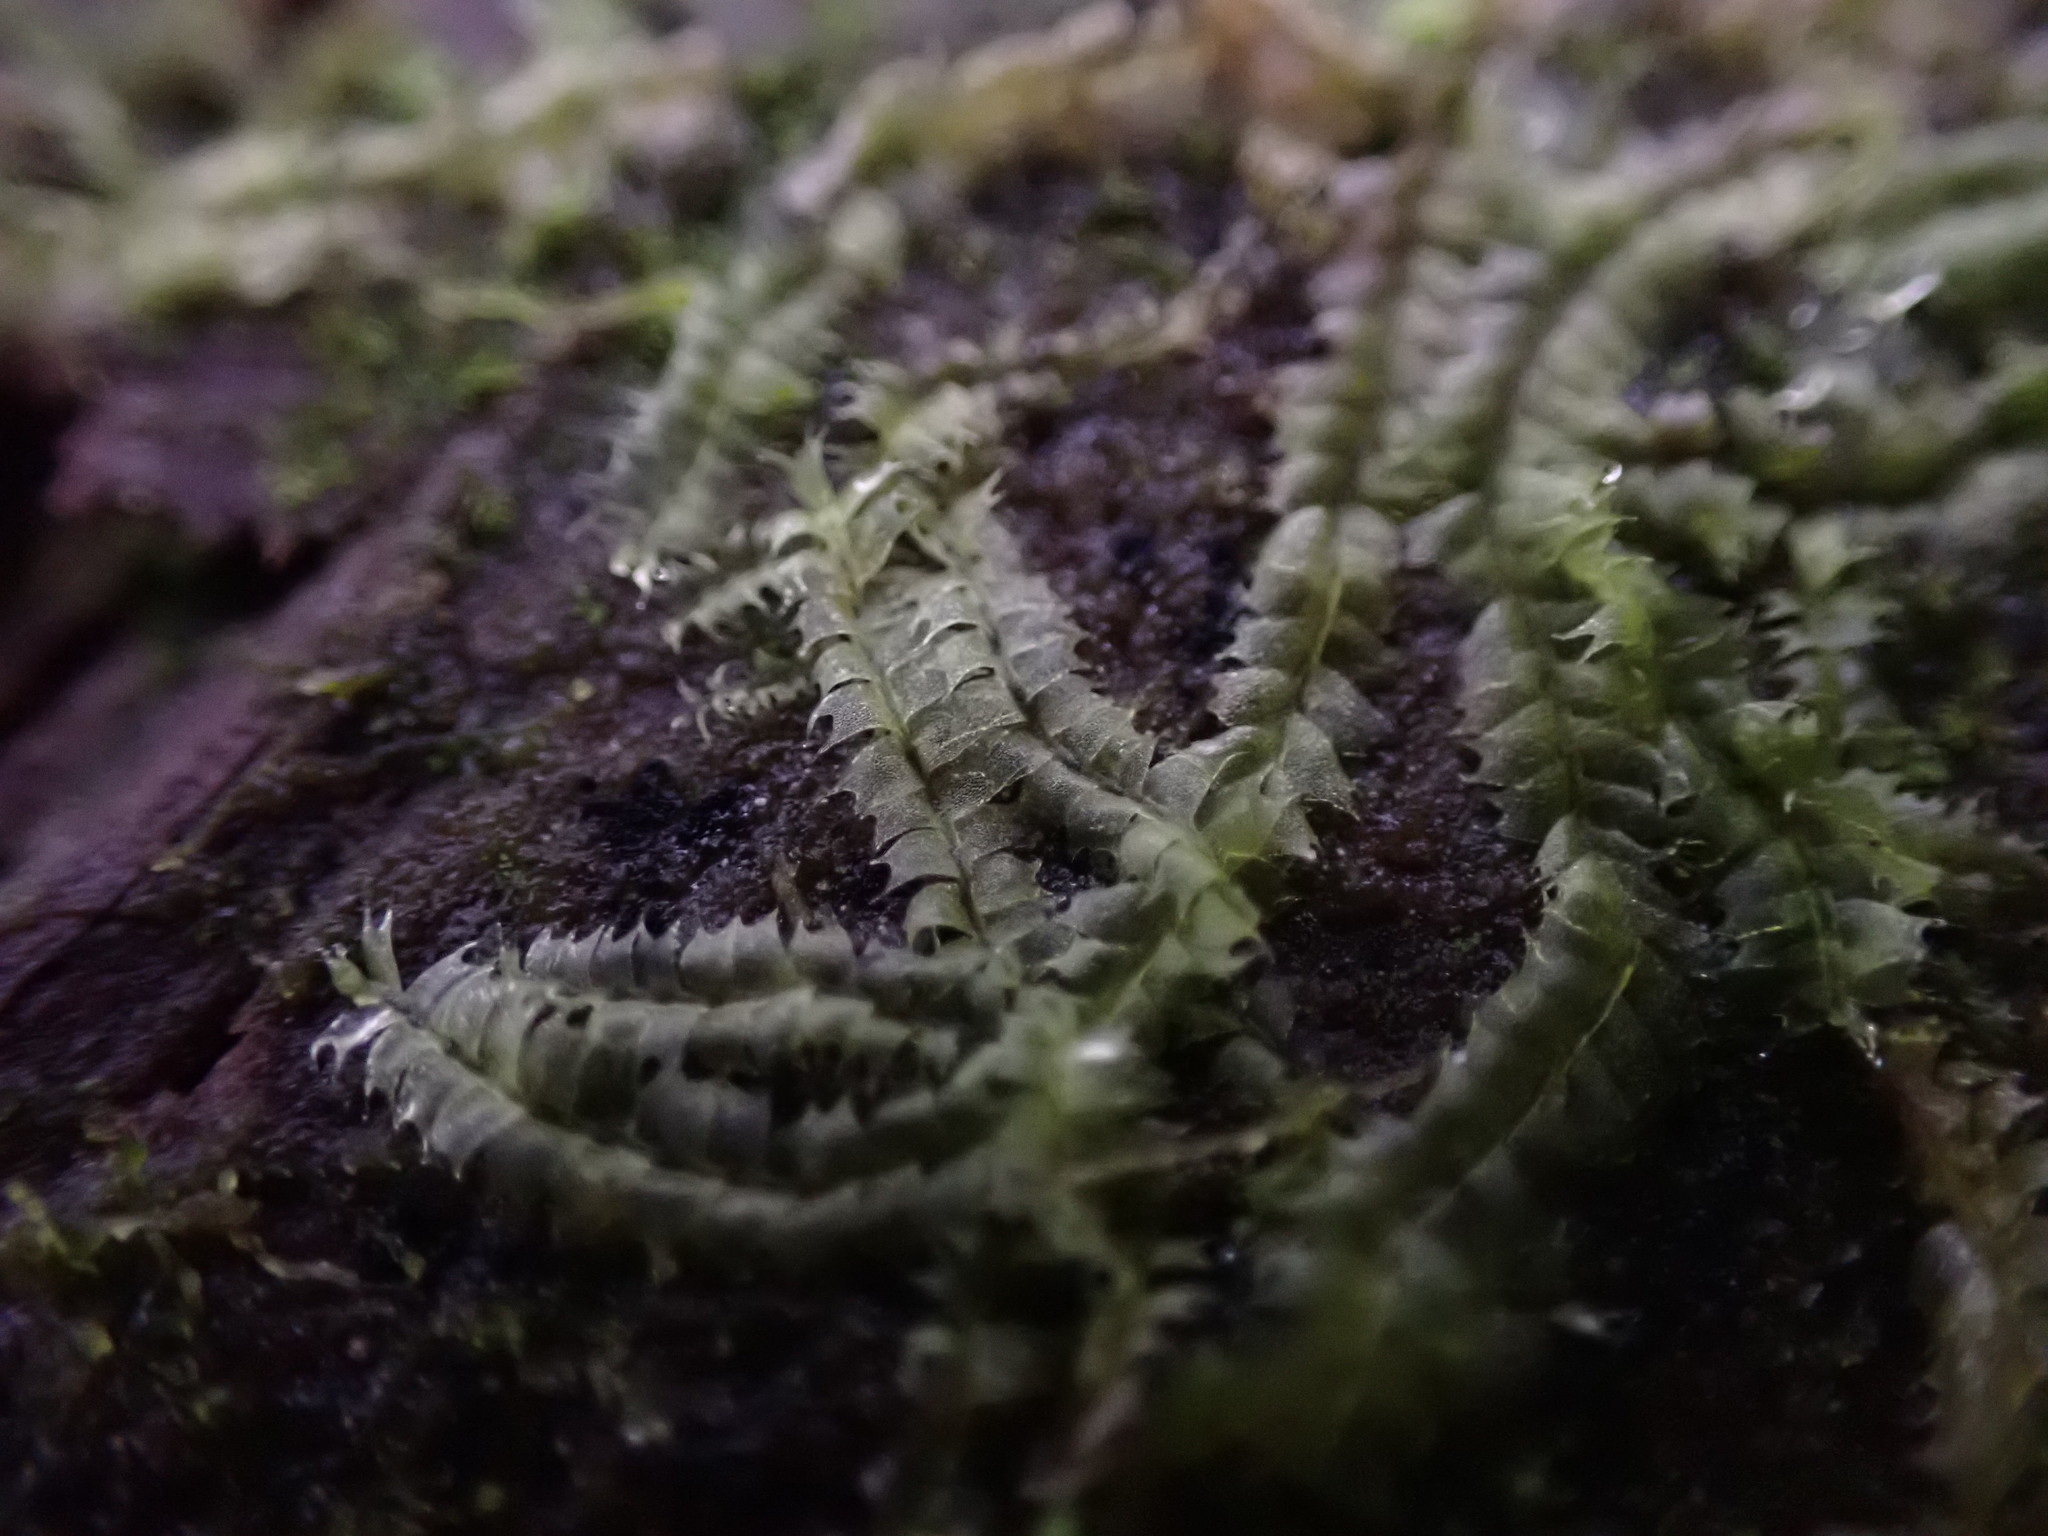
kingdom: Plantae
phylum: Marchantiophyta
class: Jungermanniopsida
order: Jungermanniales
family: Lophocoleaceae
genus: Lophocolea
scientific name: Lophocolea bidentata
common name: Bifid crestwort
